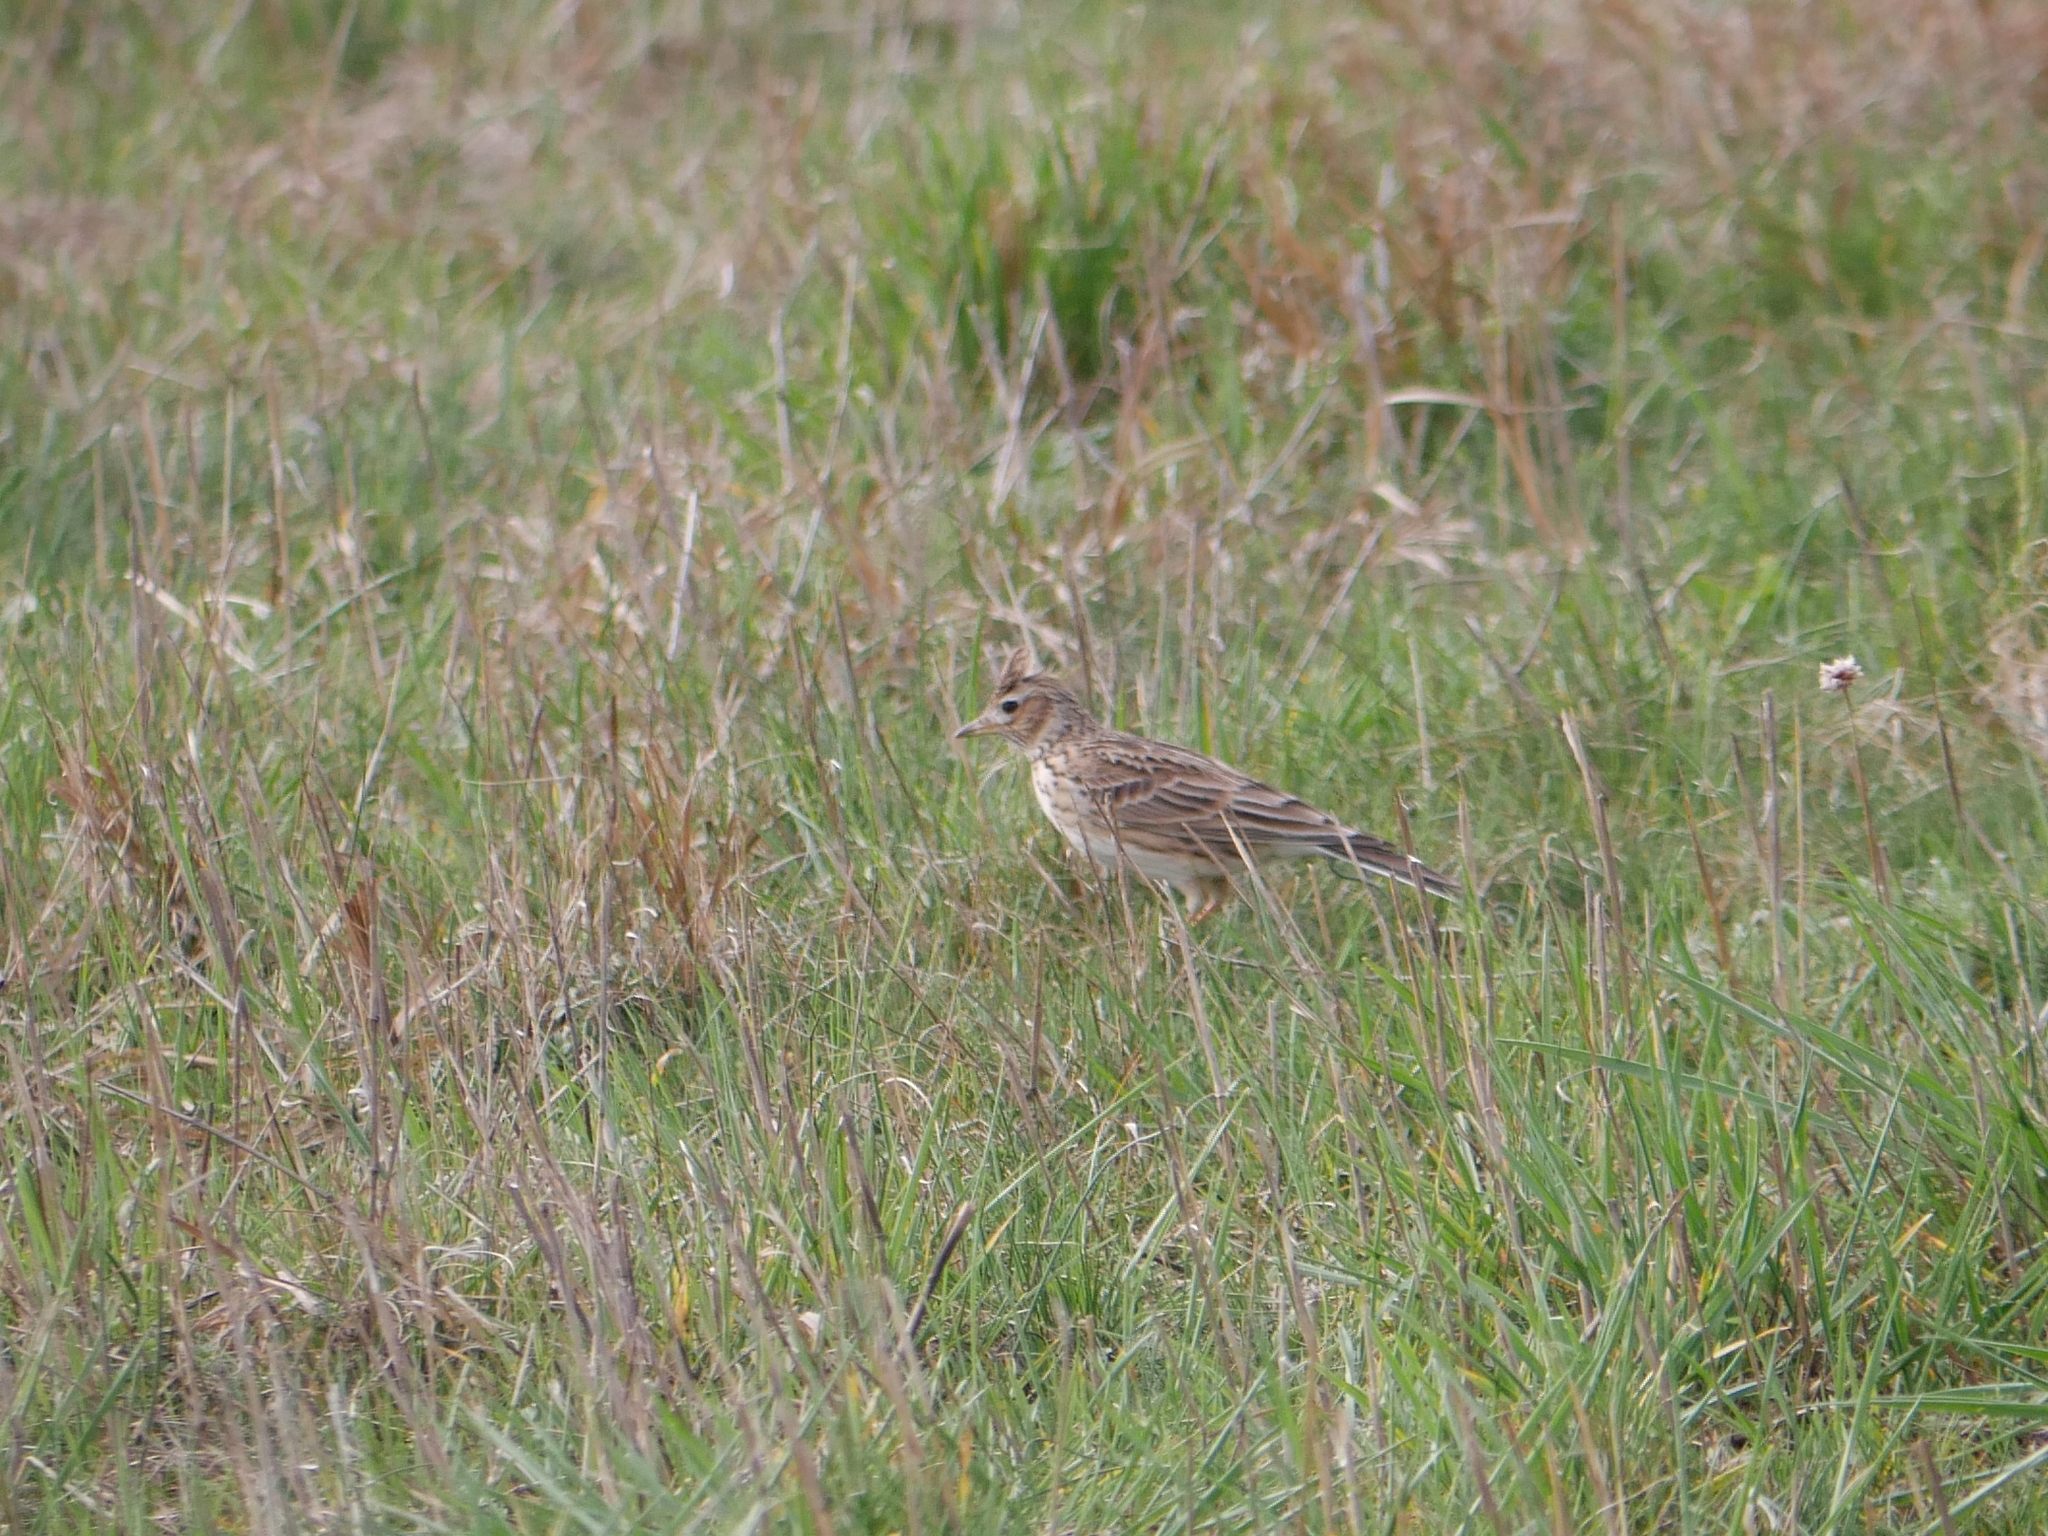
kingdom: Animalia
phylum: Chordata
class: Aves
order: Passeriformes
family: Alaudidae
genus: Alauda
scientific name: Alauda arvensis
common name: Eurasian skylark
